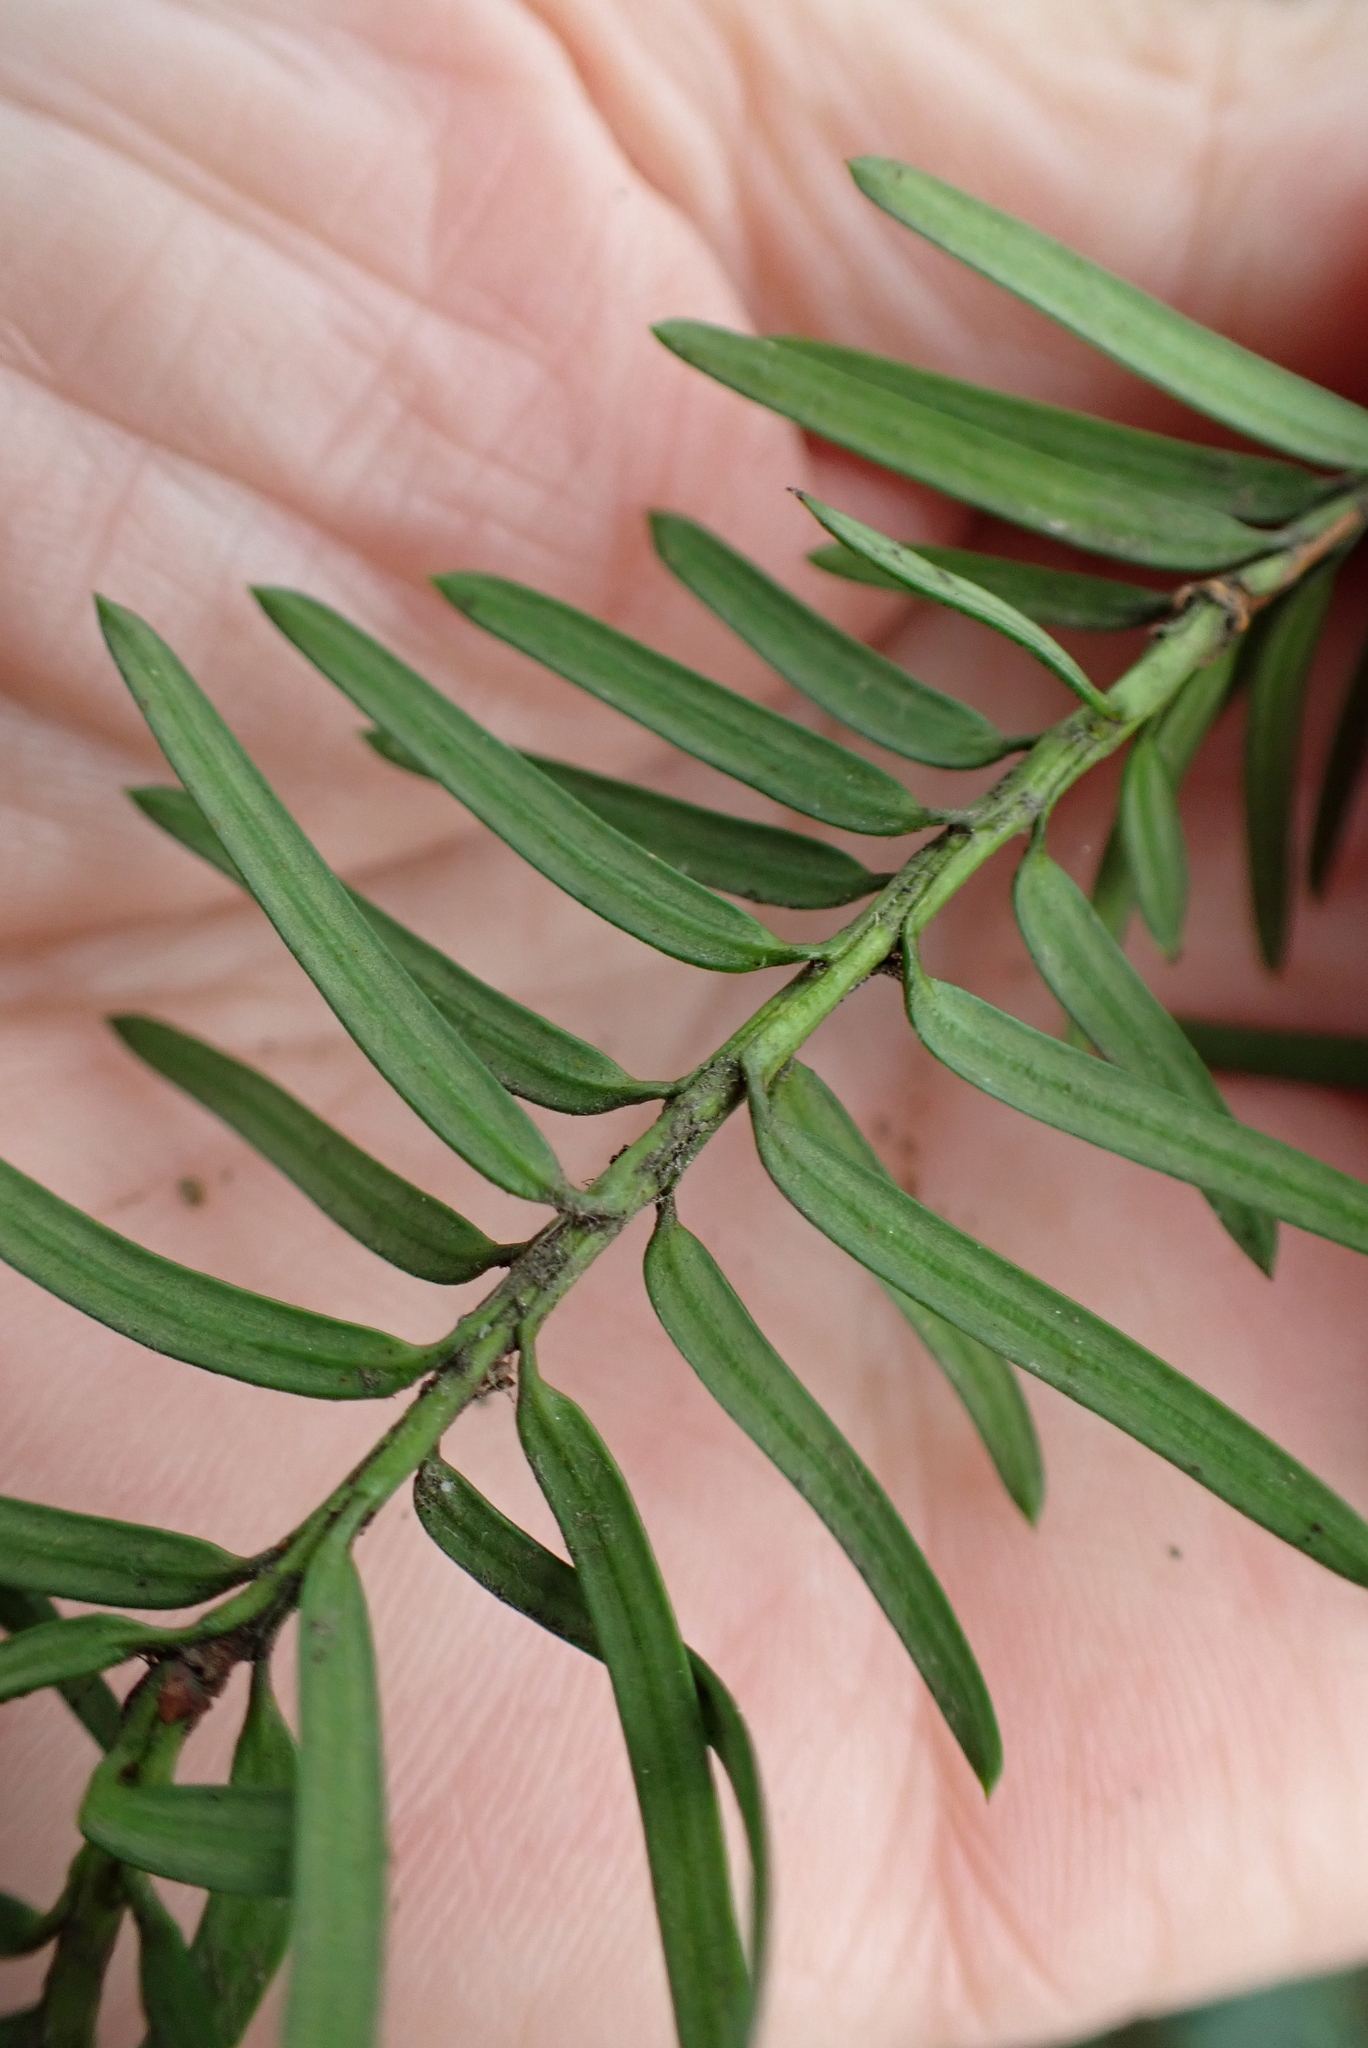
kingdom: Plantae
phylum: Tracheophyta
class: Pinopsida
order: Pinales
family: Taxaceae
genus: Taxus
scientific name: Taxus baccata
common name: Yew
